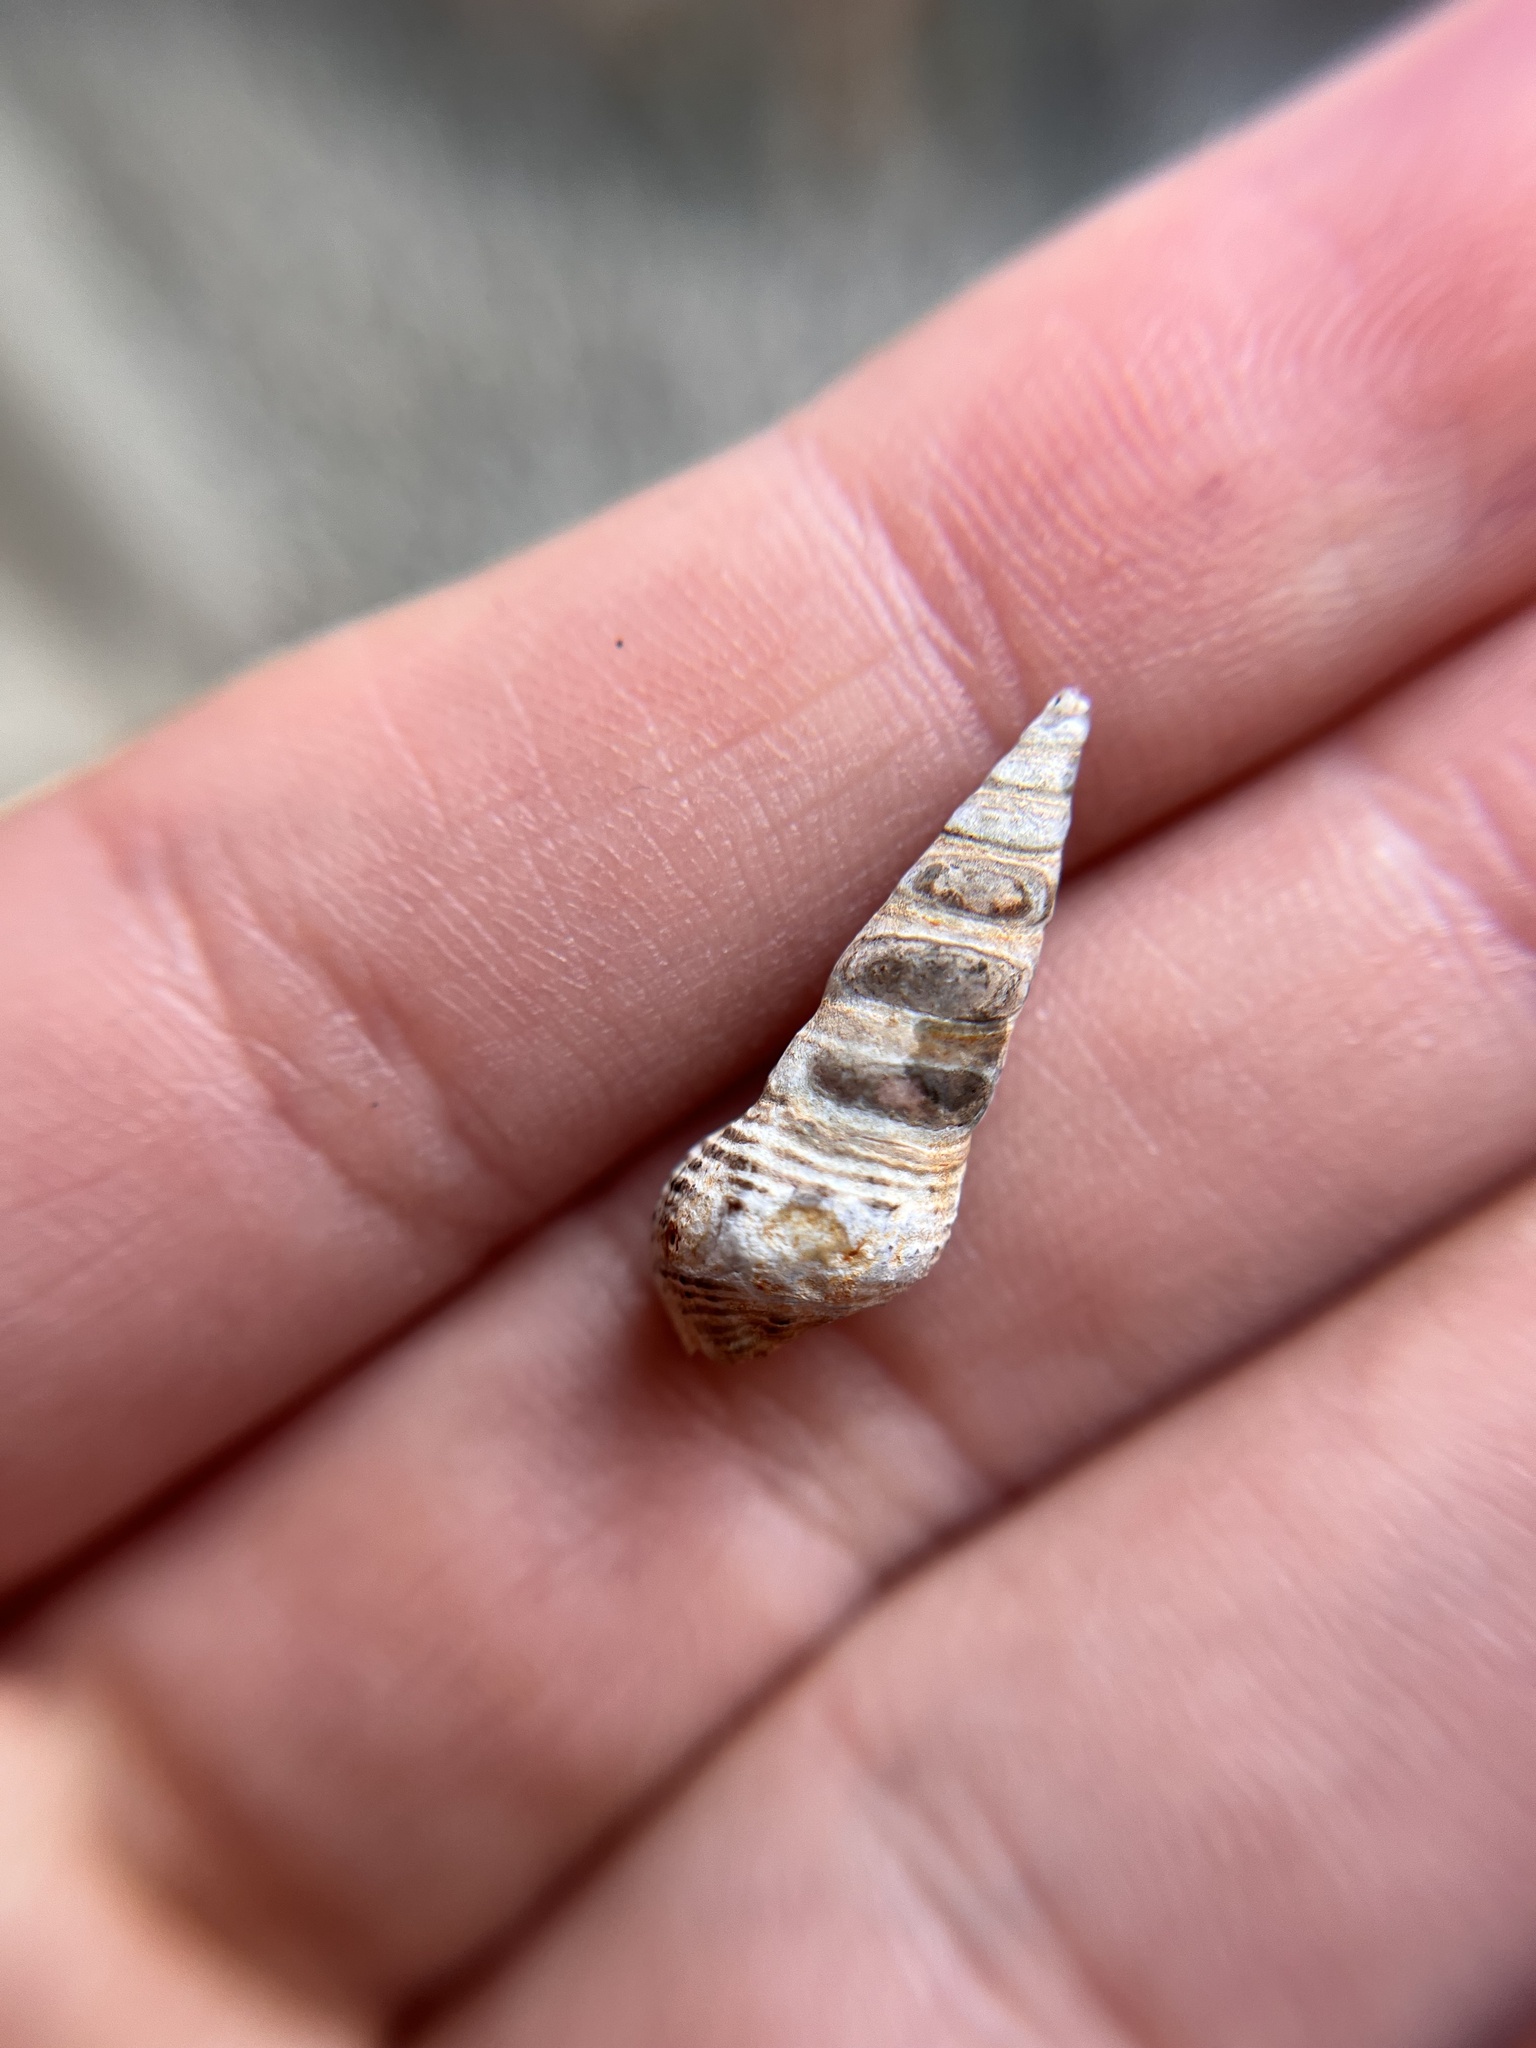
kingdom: Animalia
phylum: Mollusca
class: Gastropoda
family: Batillariidae
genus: Batillaria
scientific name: Batillaria attramentaria
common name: Japanese false cerith
